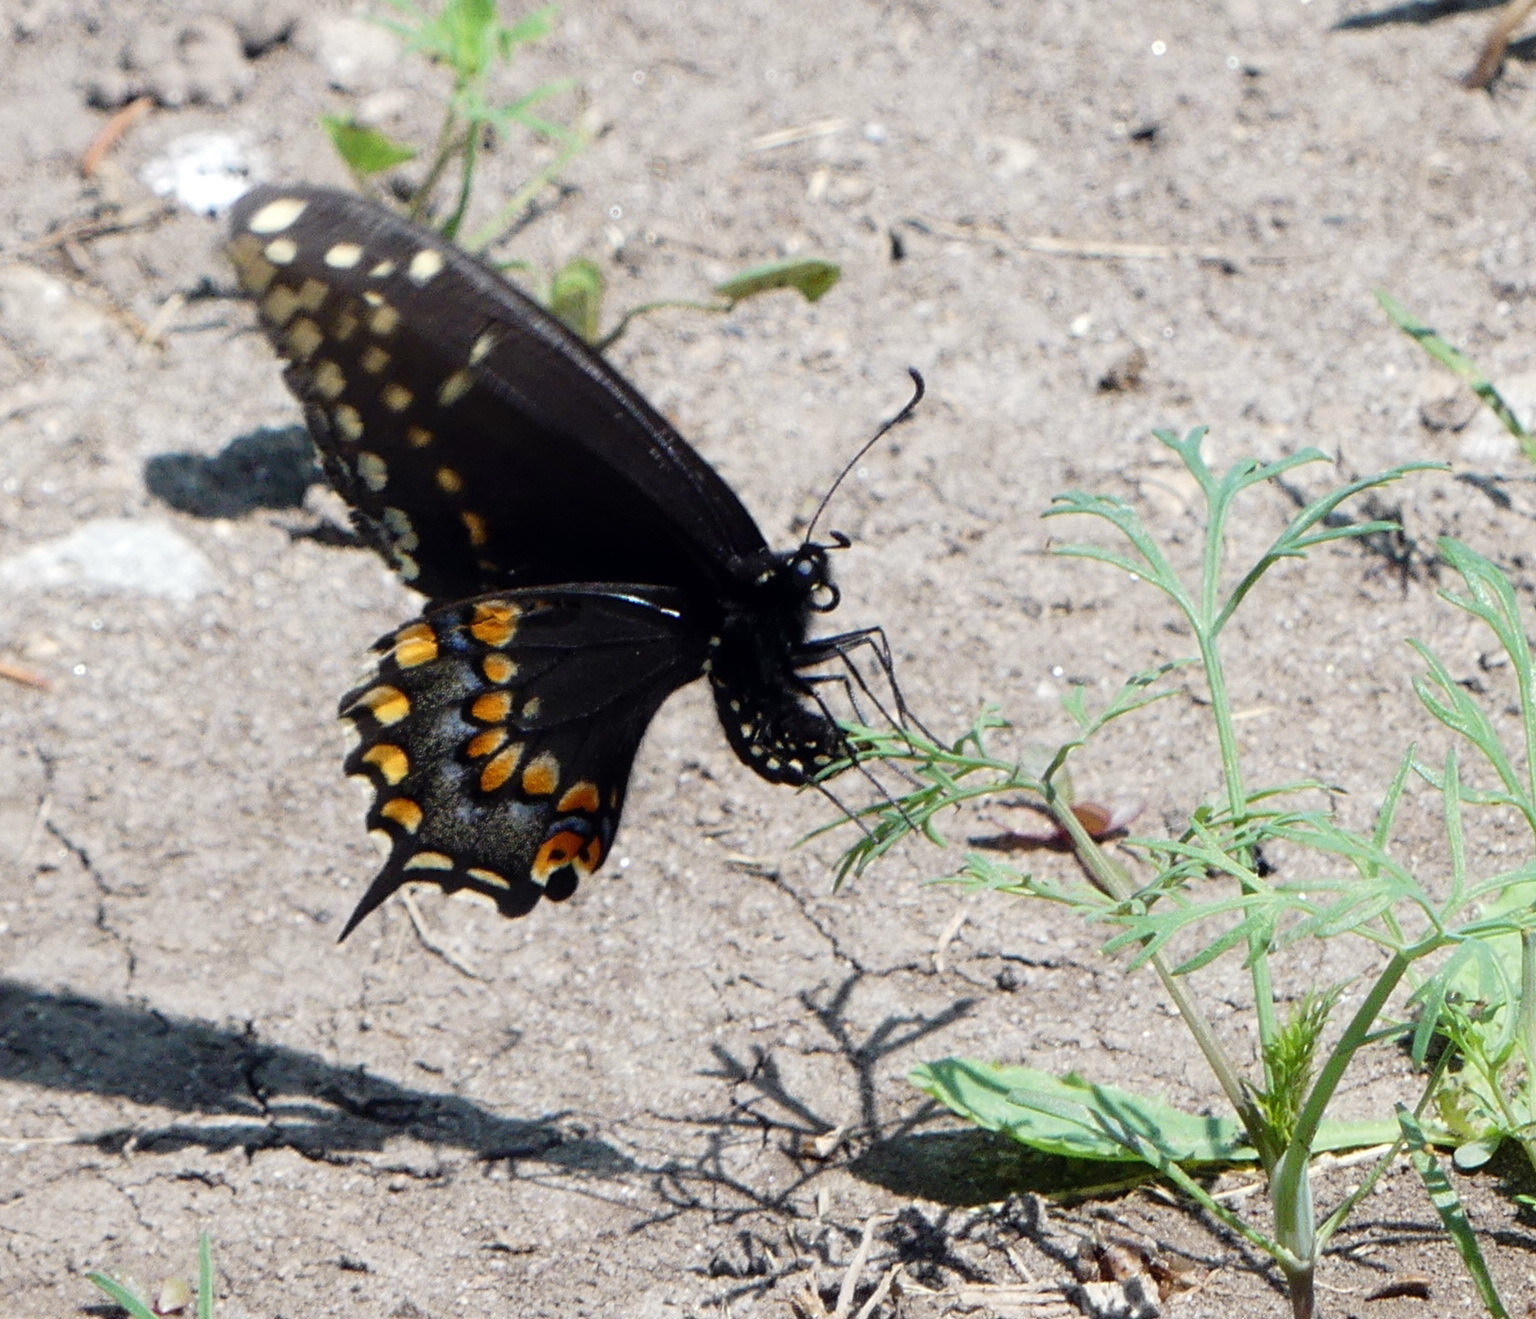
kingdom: Animalia
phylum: Arthropoda
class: Insecta
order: Lepidoptera
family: Papilionidae
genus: Papilio
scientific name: Papilio polyxenes
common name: Black swallowtail
